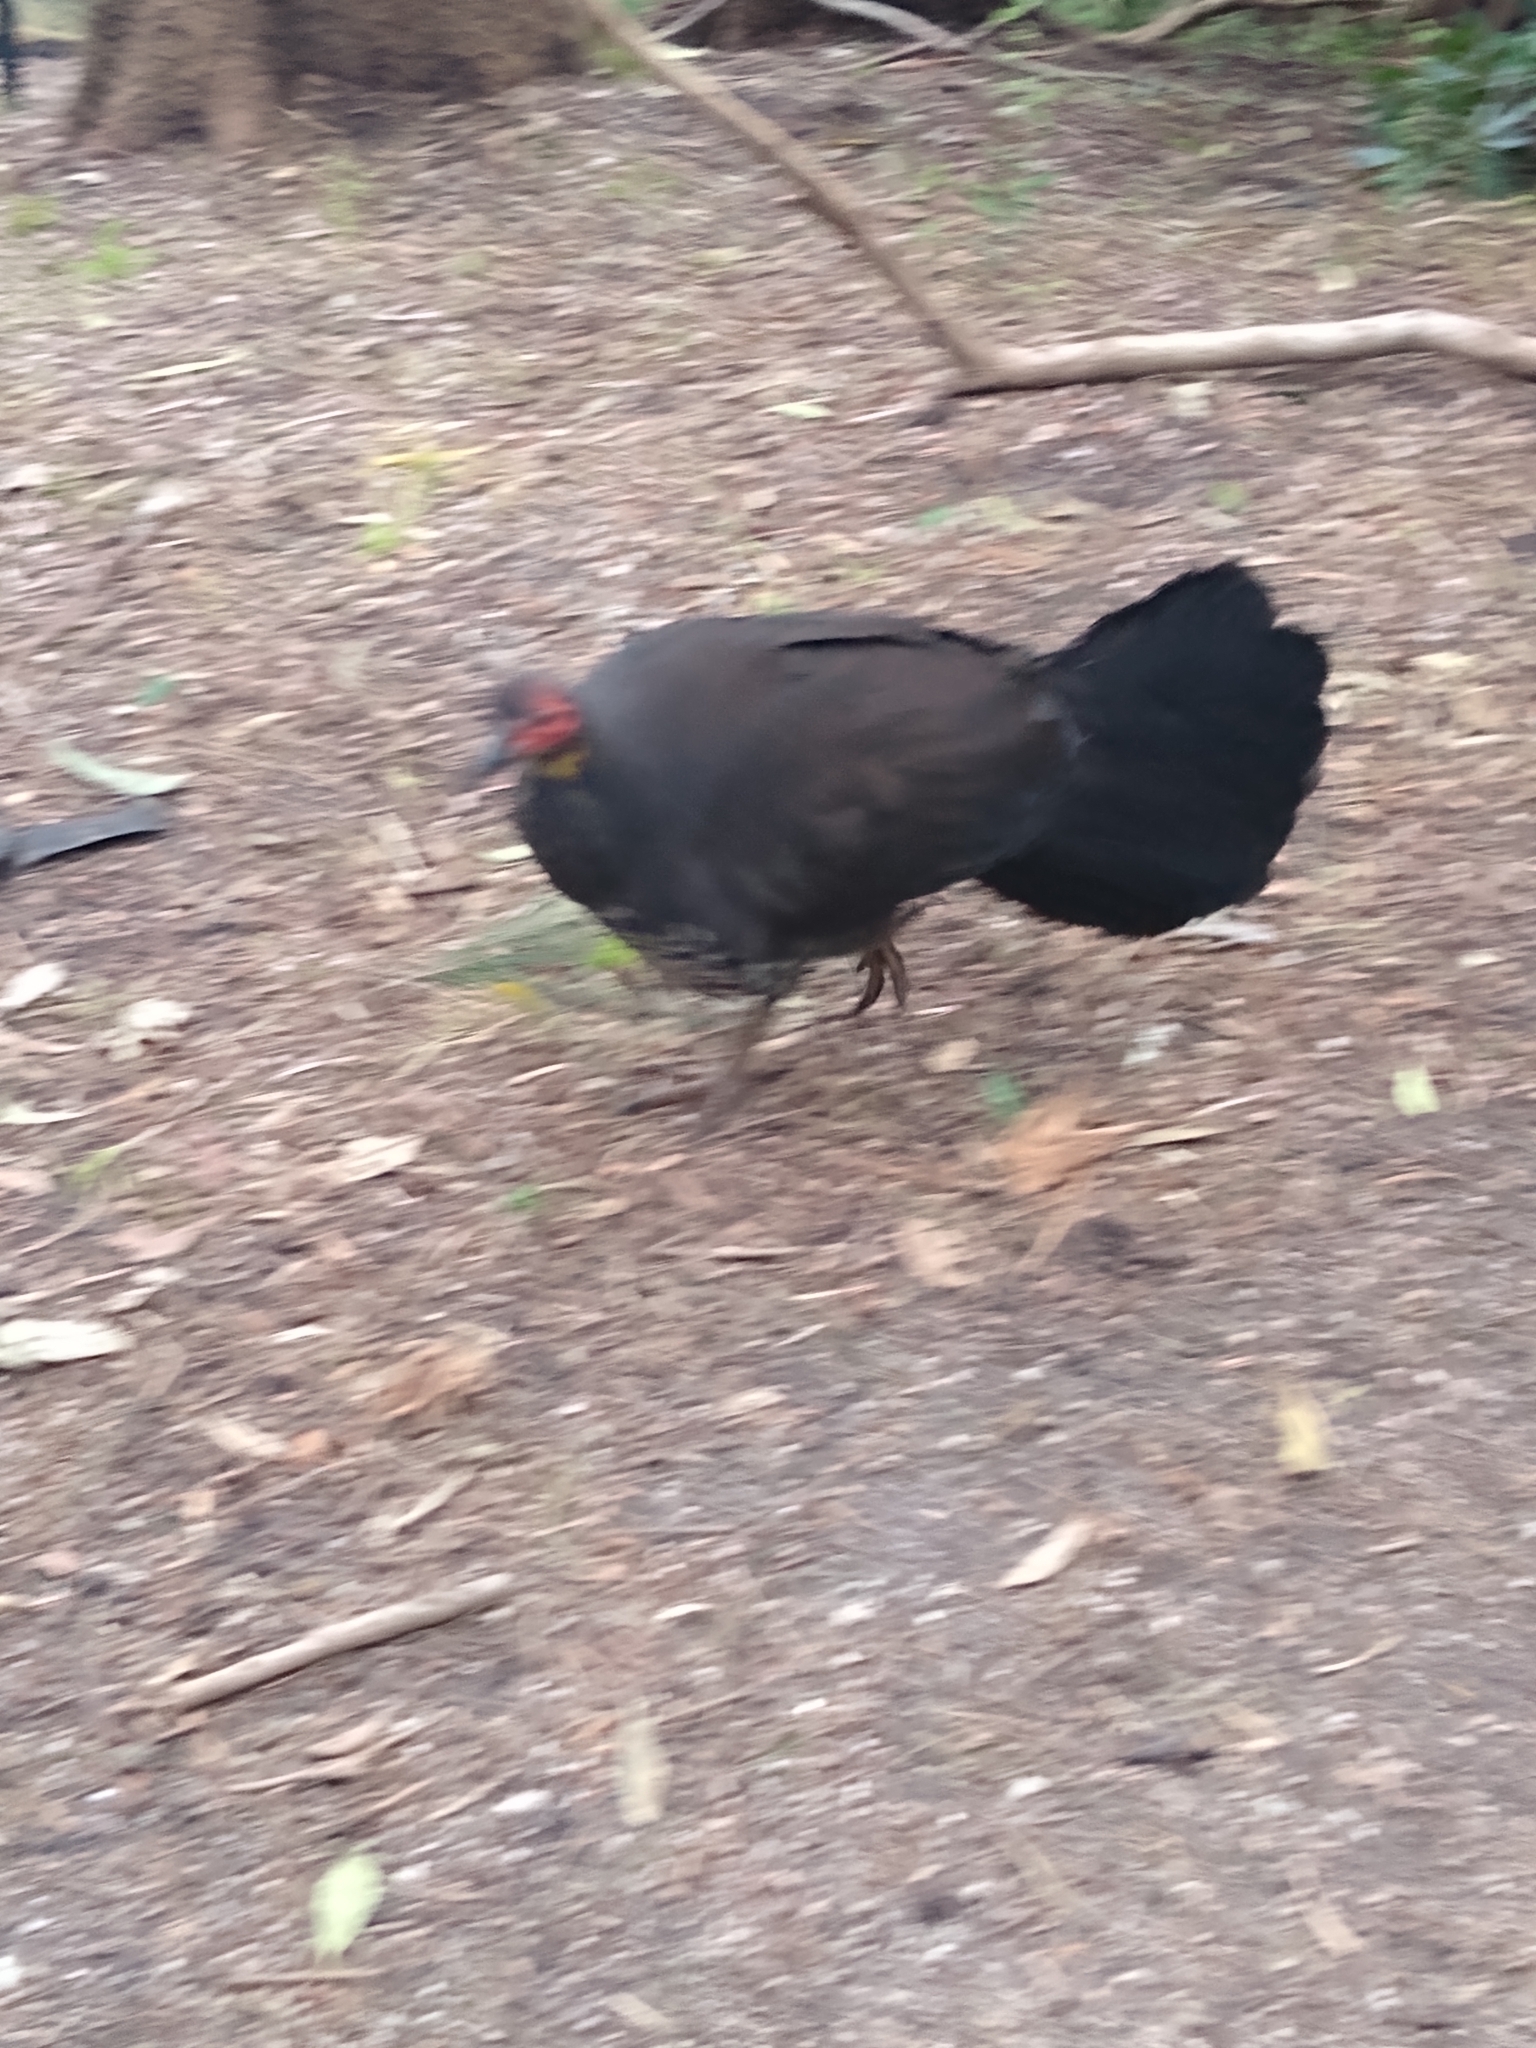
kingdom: Animalia
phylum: Chordata
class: Aves
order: Galliformes
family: Megapodiidae
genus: Alectura
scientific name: Alectura lathami
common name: Australian brushturkey
